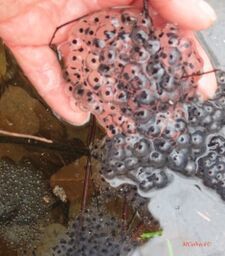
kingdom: Animalia
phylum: Chordata
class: Amphibia
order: Anura
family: Ranidae
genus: Lithobates
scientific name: Lithobates sylvaticus
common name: Wood frog
